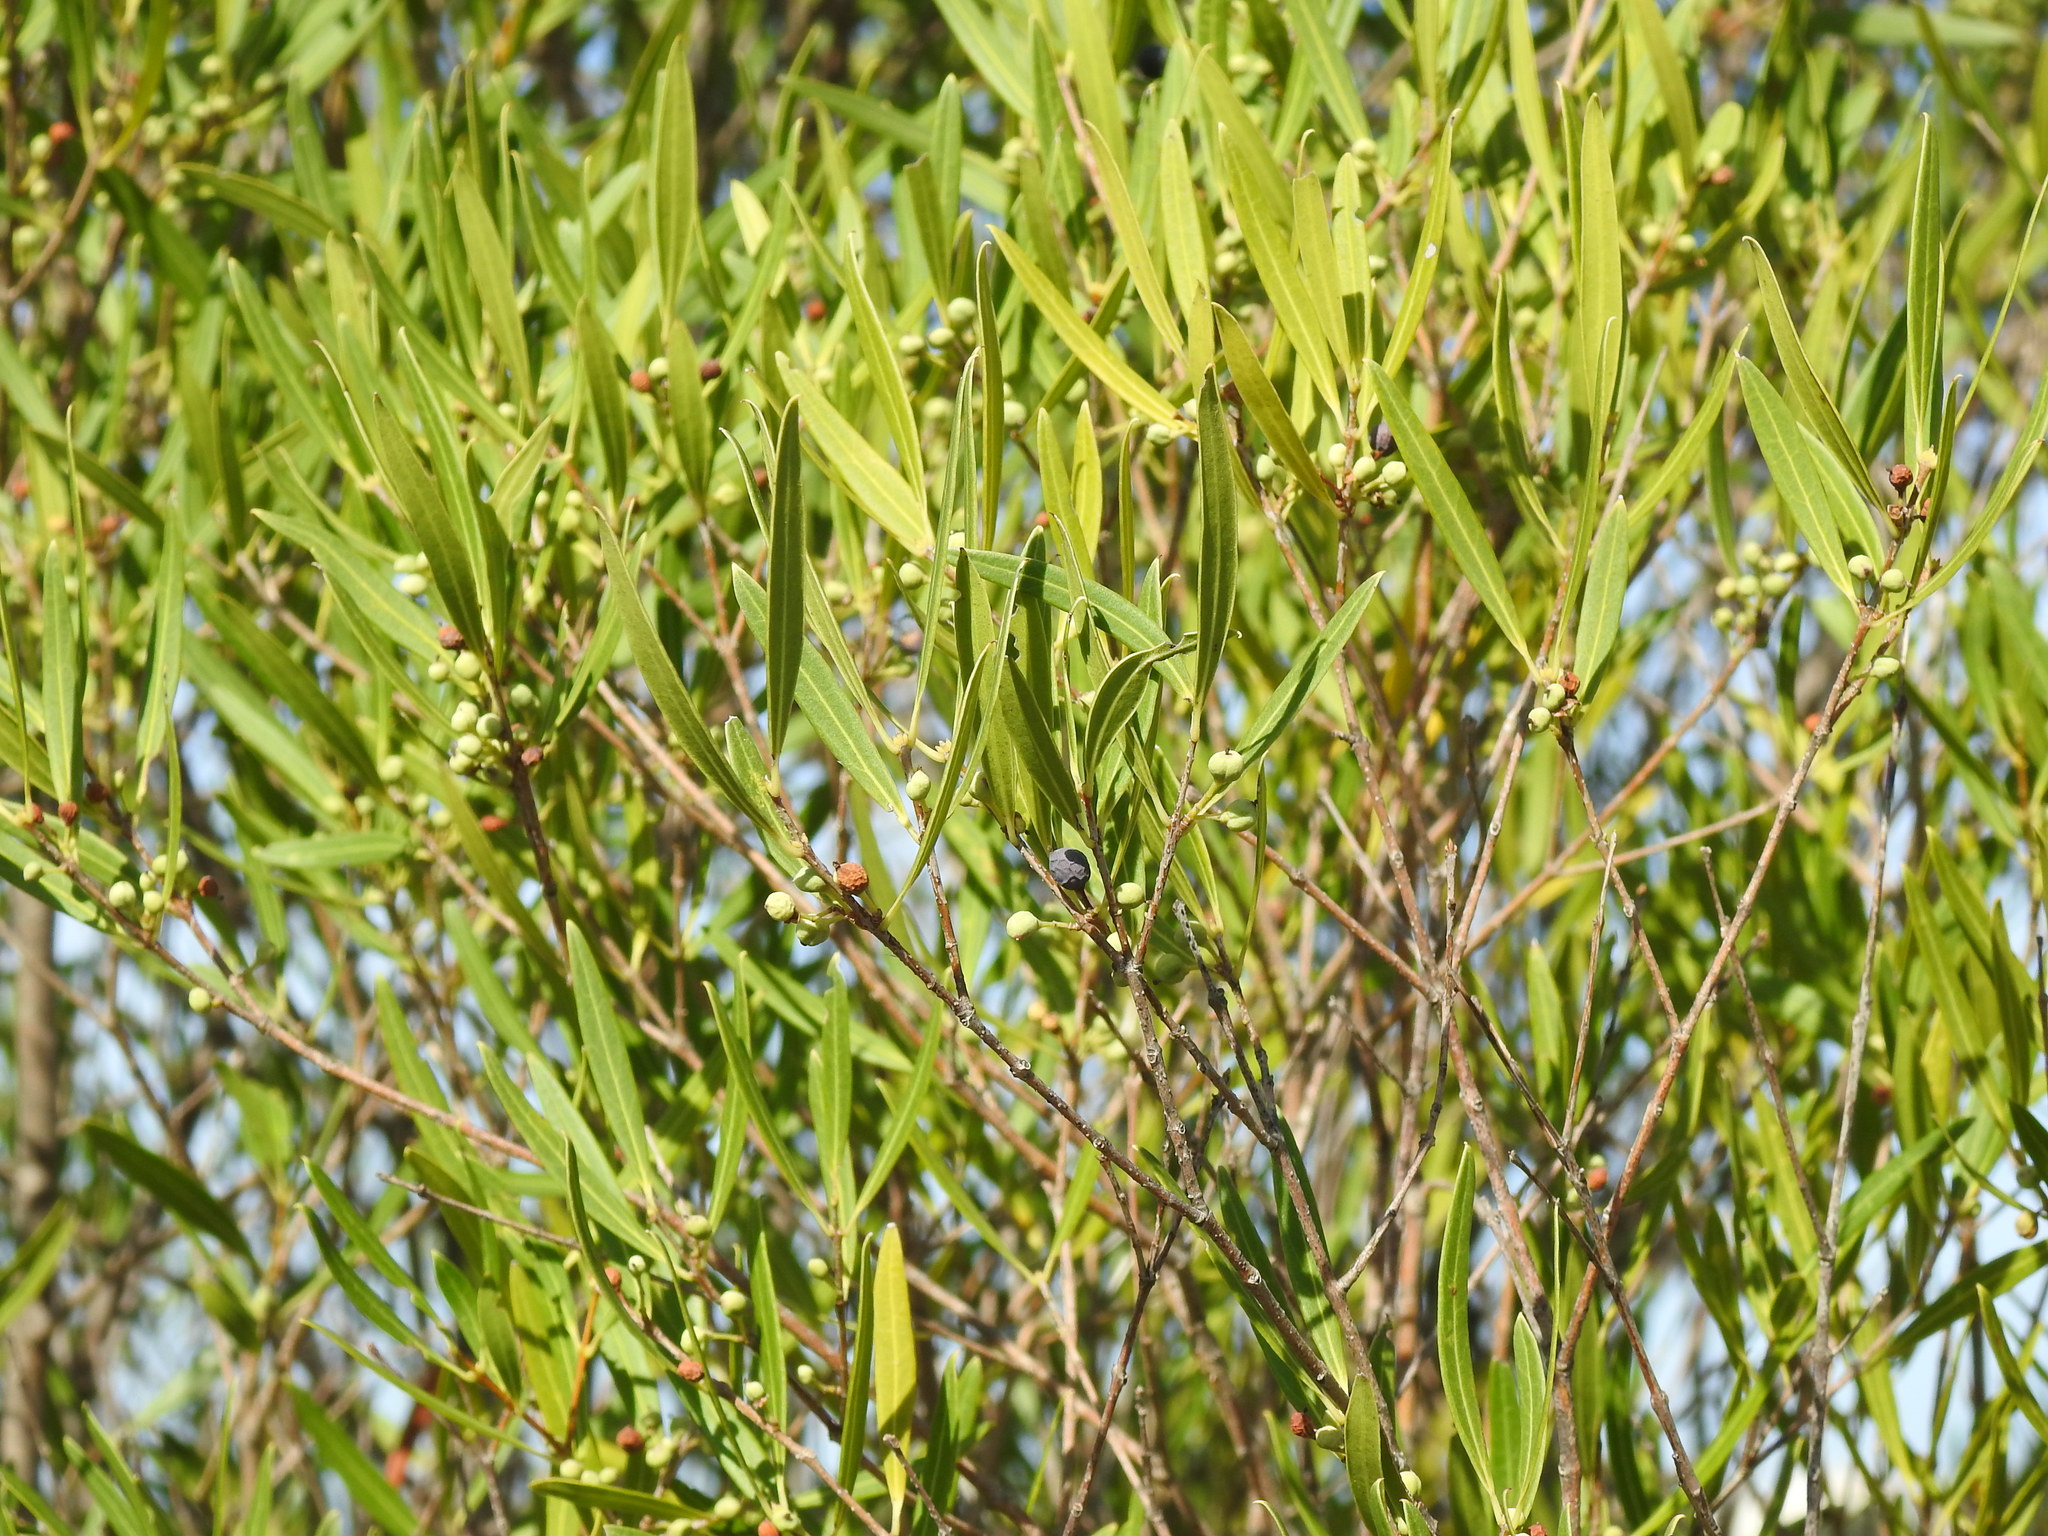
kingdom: Plantae
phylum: Tracheophyta
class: Magnoliopsida
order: Lamiales
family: Oleaceae
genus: Phillyrea
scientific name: Phillyrea angustifolia
